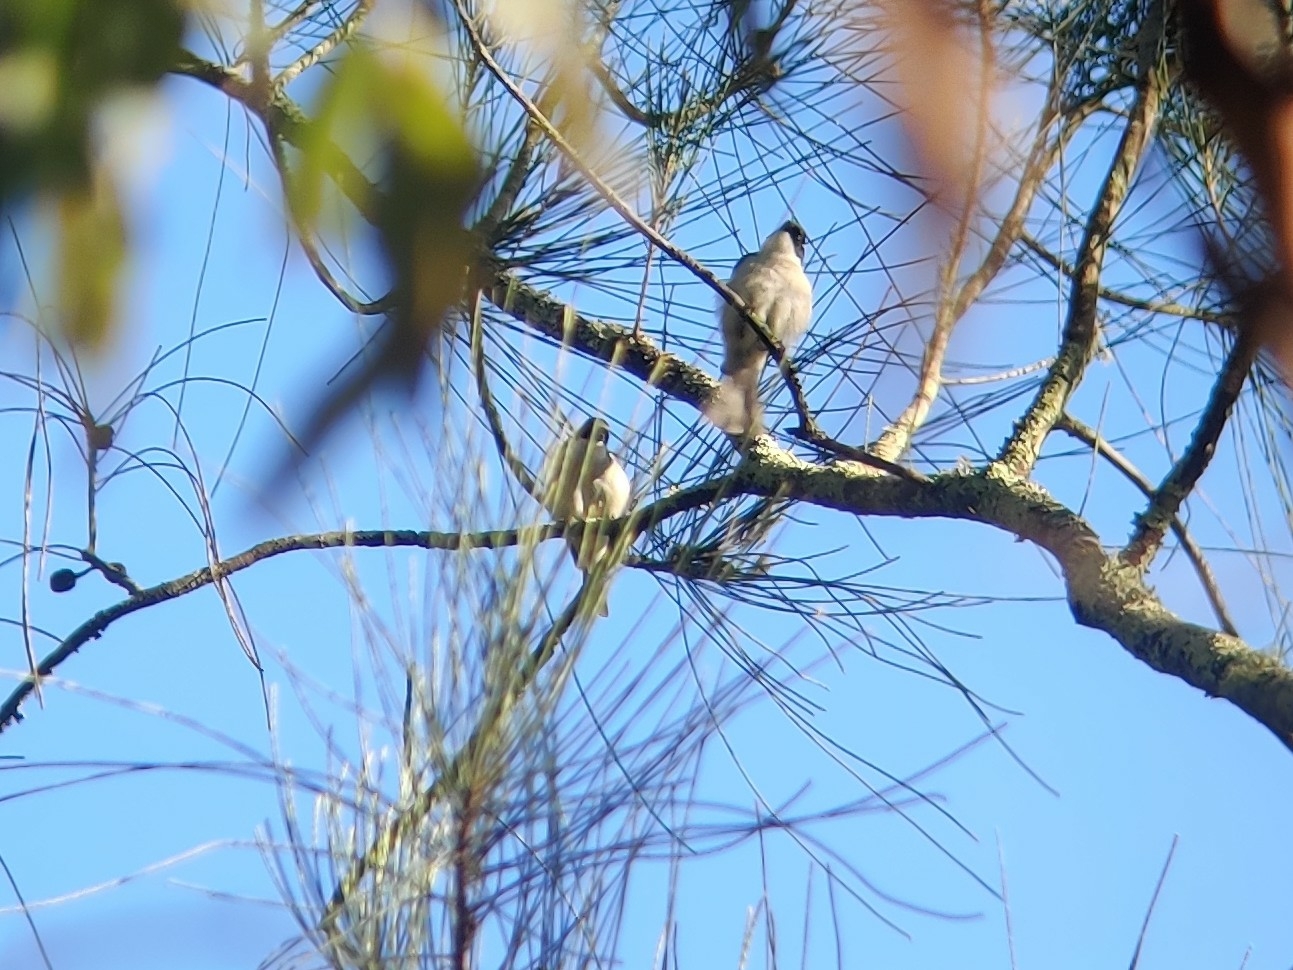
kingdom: Animalia
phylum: Chordata
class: Aves
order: Passeriformes
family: Meliphagidae
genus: Melithreptus
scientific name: Melithreptus lunatus
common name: White-naped honeyeater
